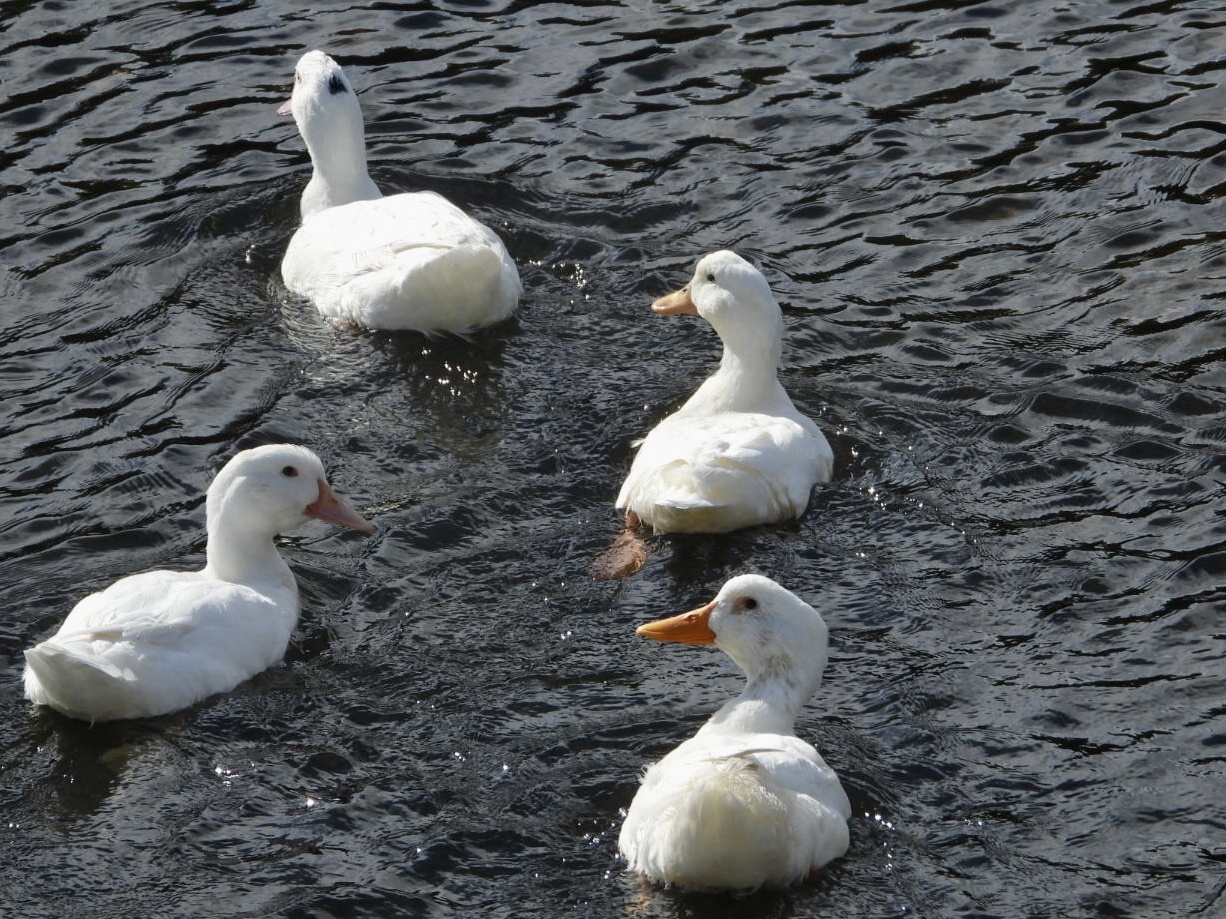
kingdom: Animalia
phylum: Chordata
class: Aves
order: Anseriformes
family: Anatidae
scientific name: Anatidae
